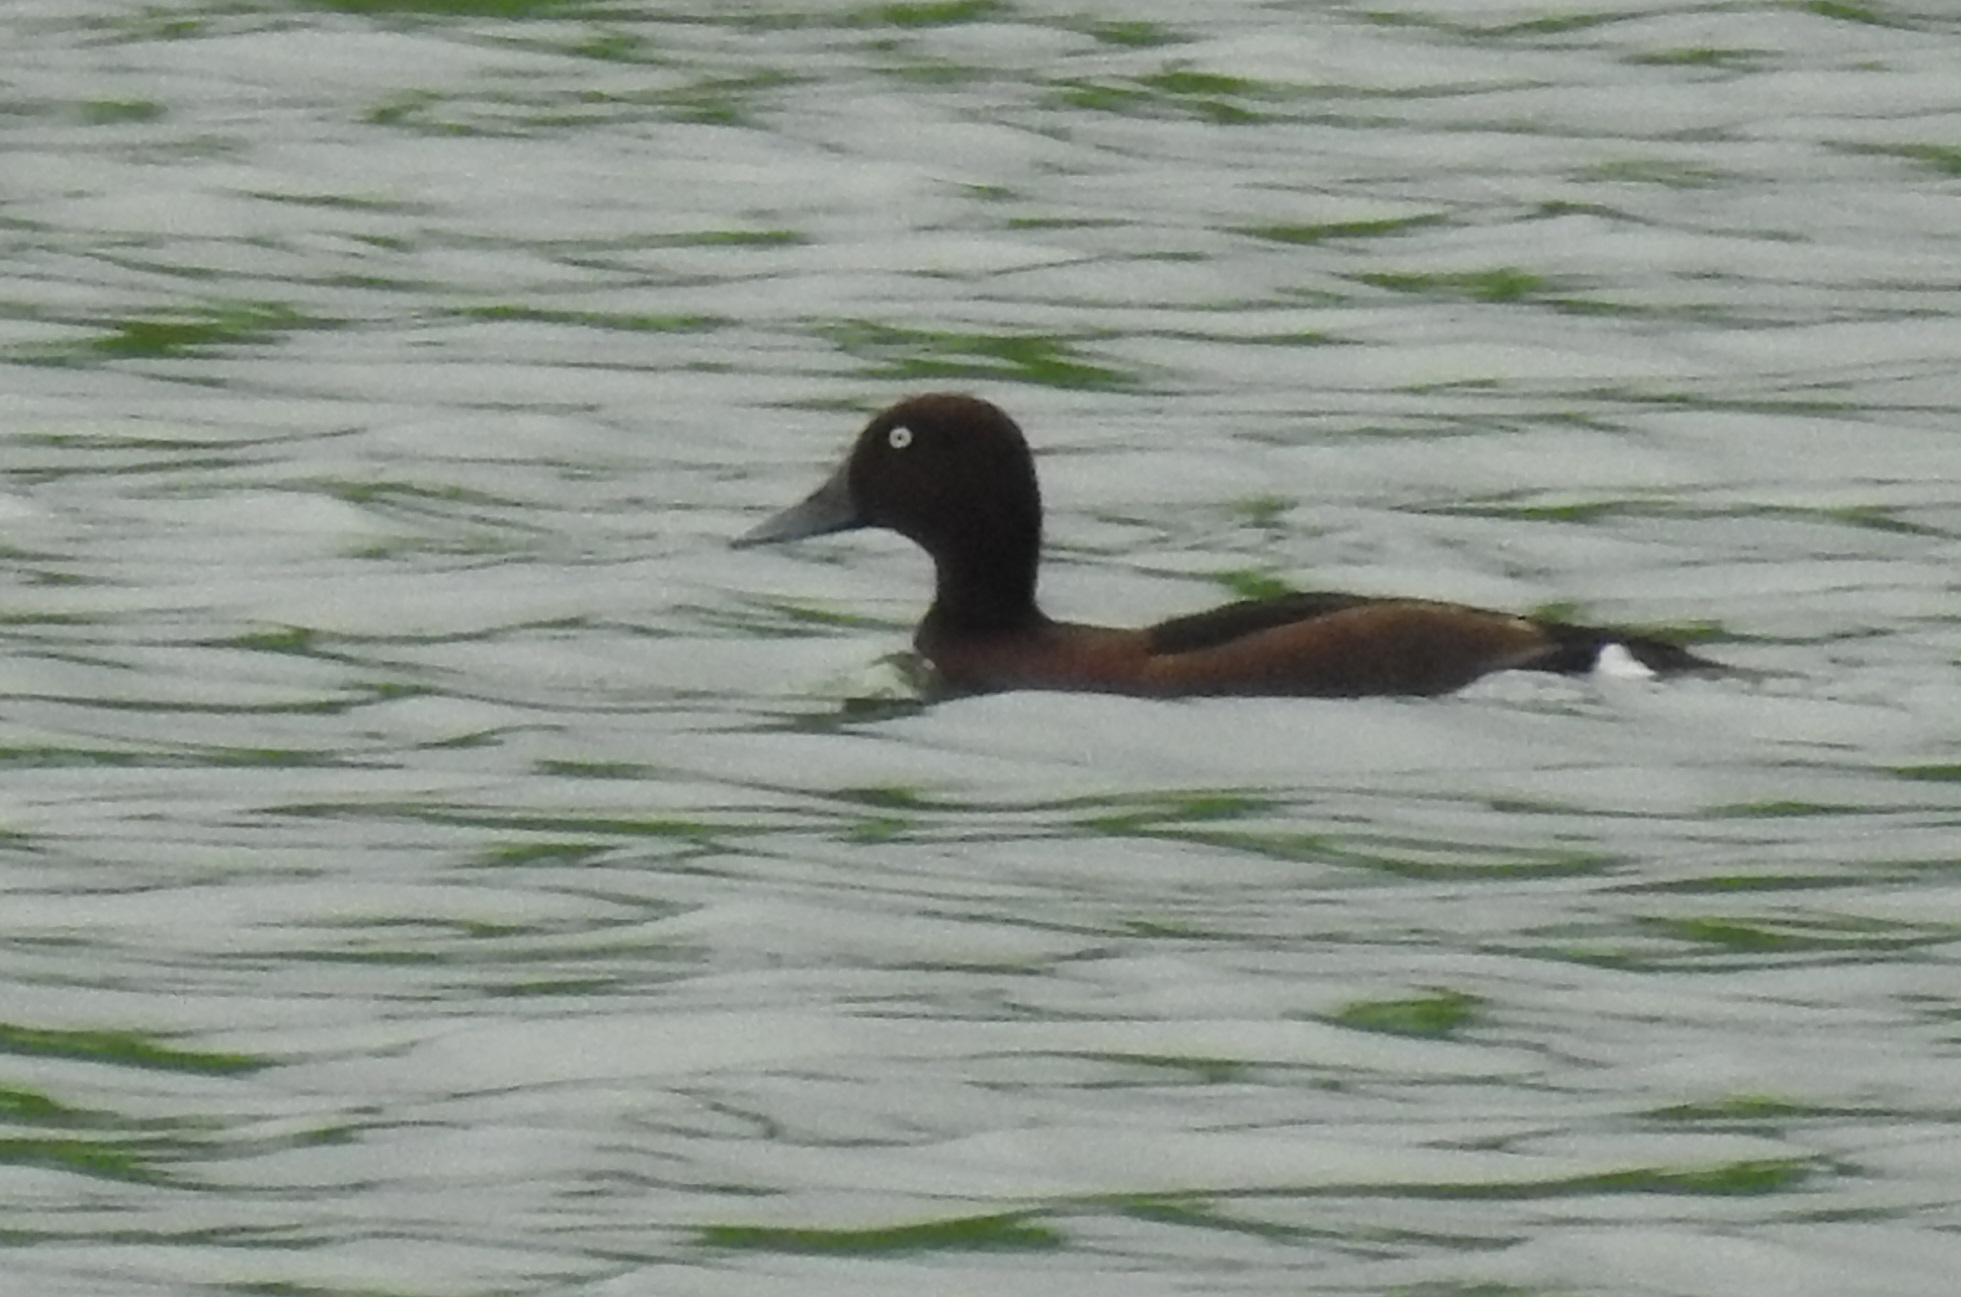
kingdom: Animalia
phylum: Chordata
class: Aves
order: Anseriformes
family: Anatidae
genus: Aythya
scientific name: Aythya nyroca
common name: Ferruginous duck
